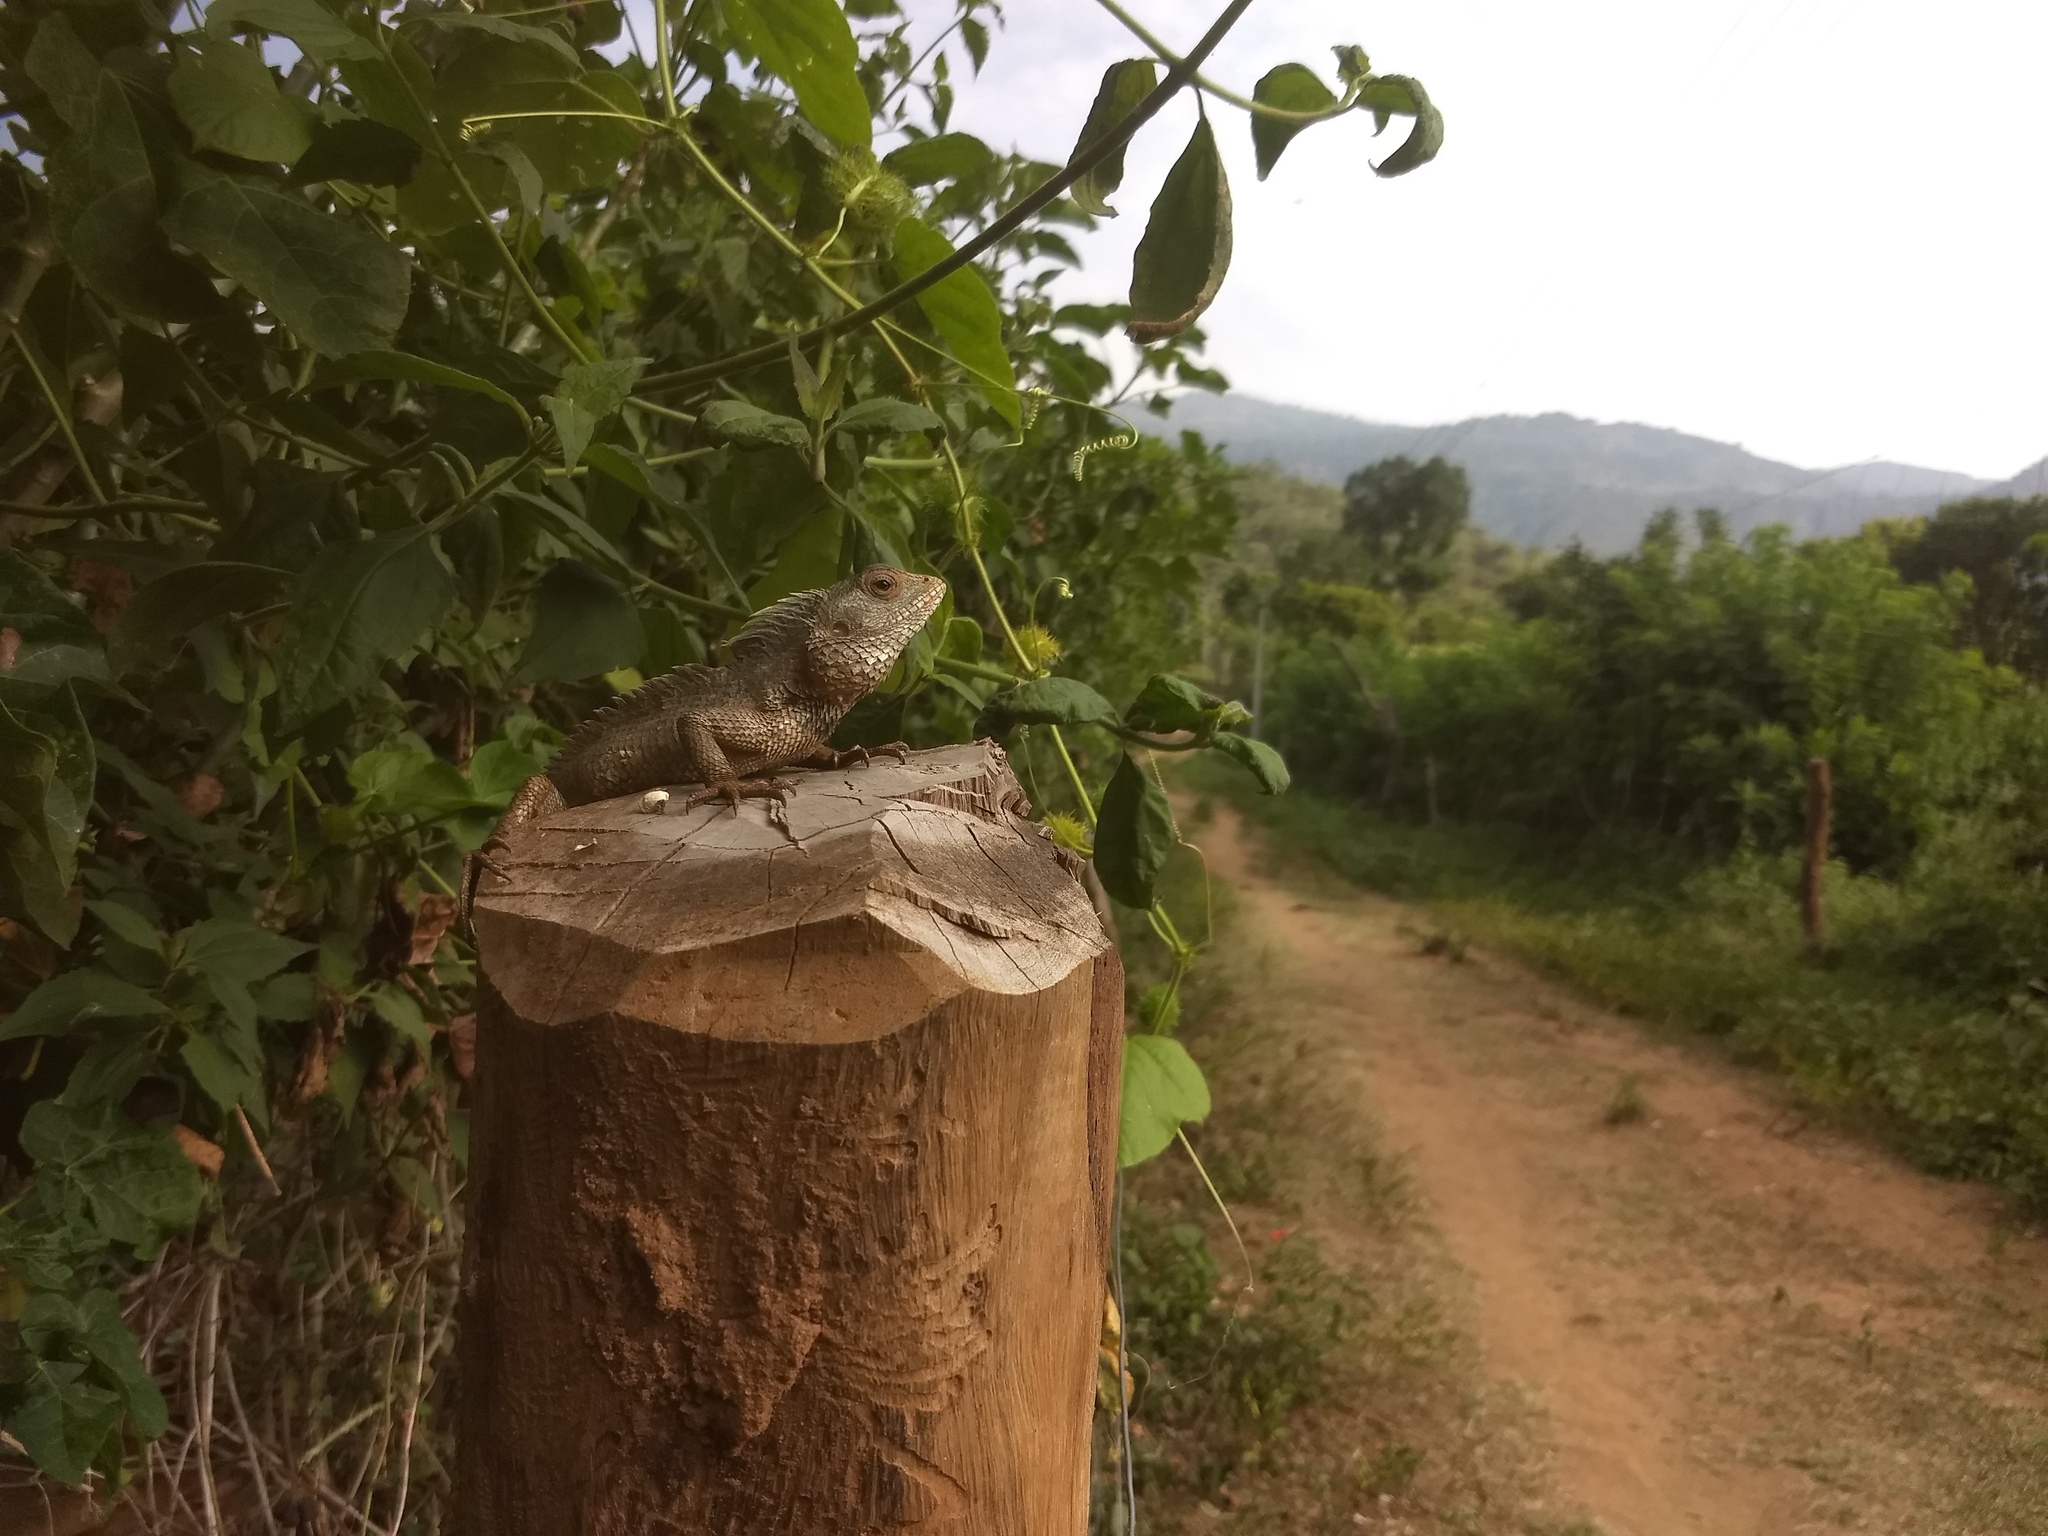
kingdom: Animalia
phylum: Chordata
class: Squamata
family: Agamidae
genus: Calotes
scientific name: Calotes versicolor
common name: Oriental garden lizard
